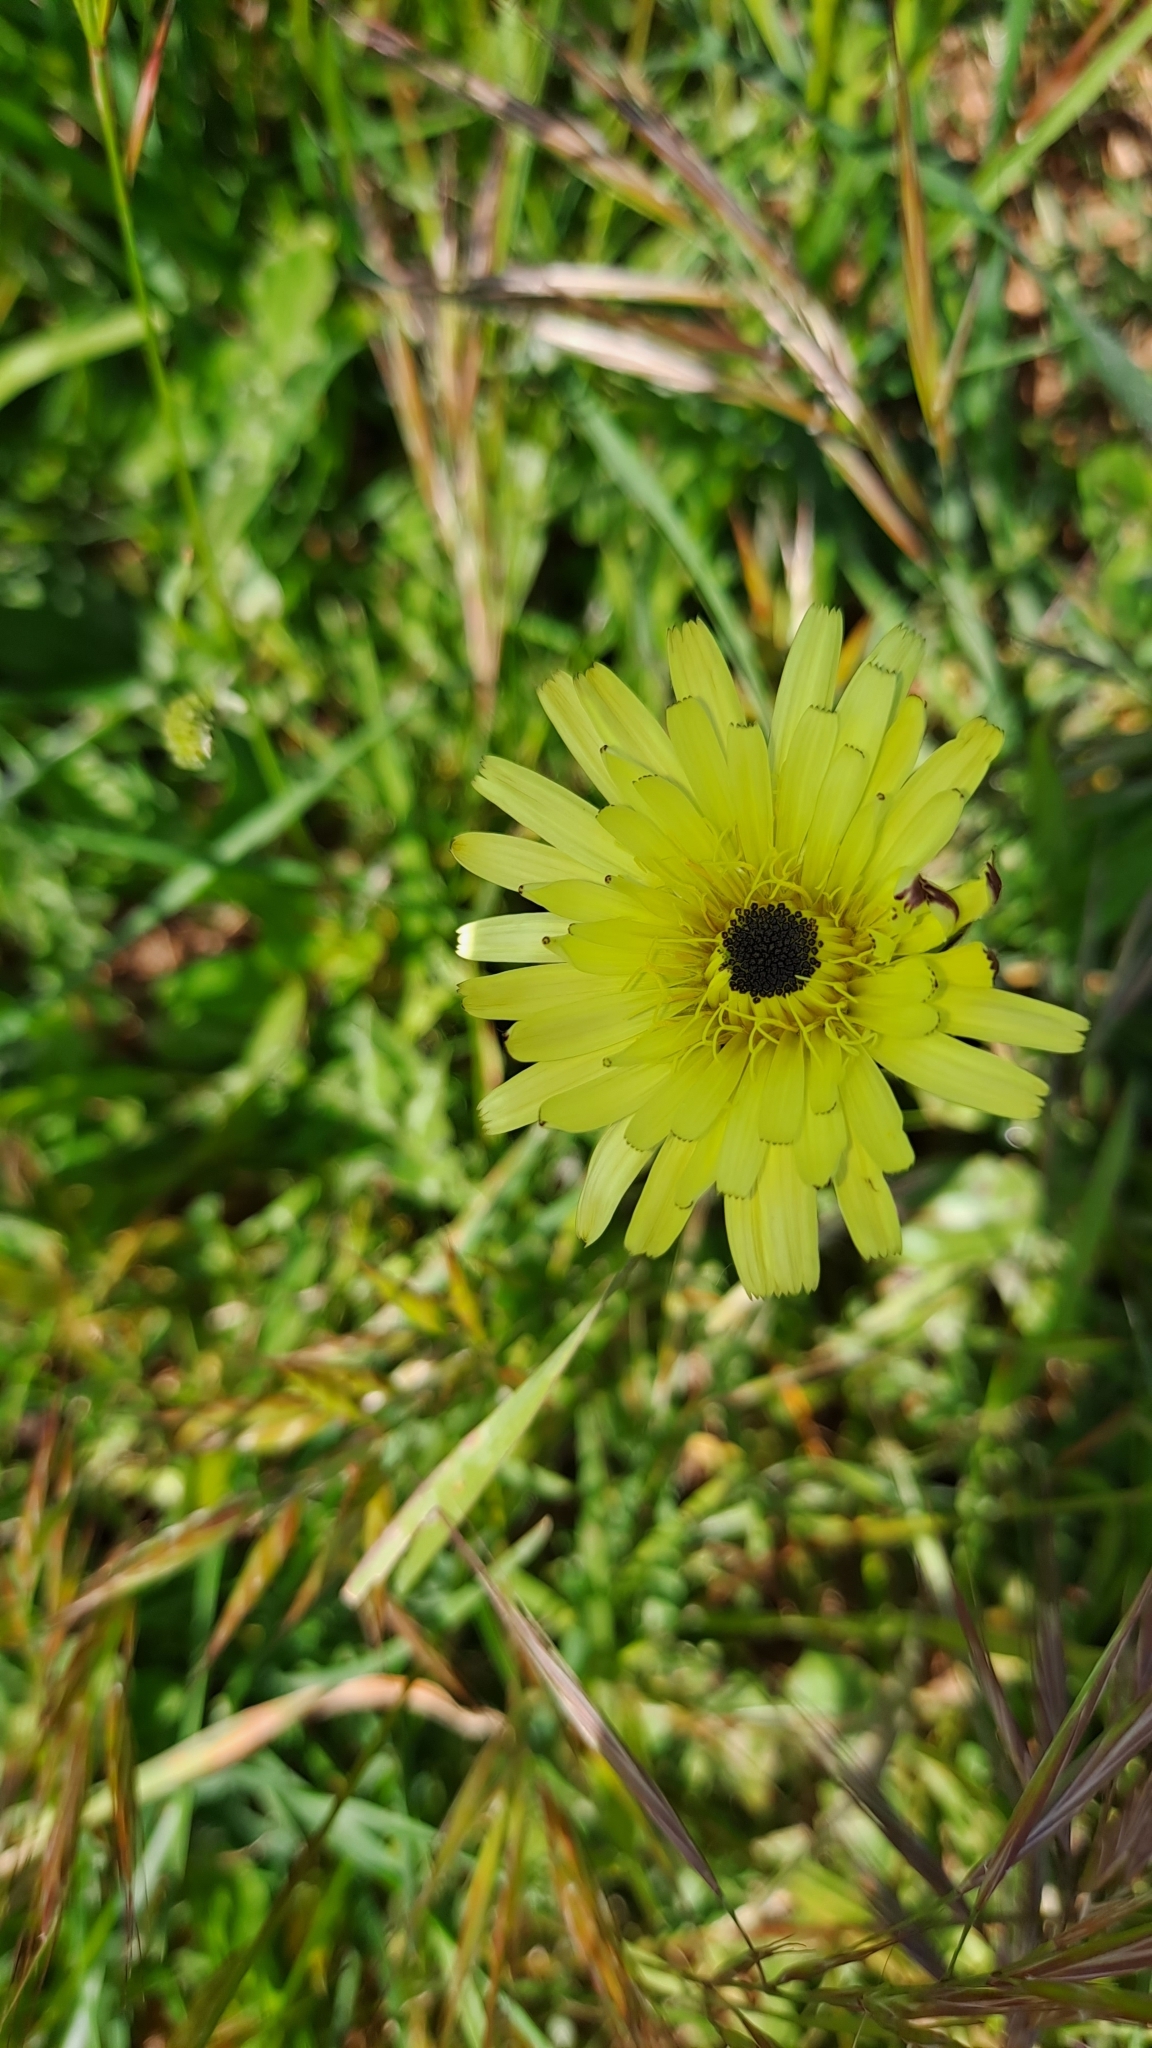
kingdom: Plantae
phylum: Tracheophyta
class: Magnoliopsida
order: Asterales
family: Asteraceae
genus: Urospermum
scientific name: Urospermum dalechampii
